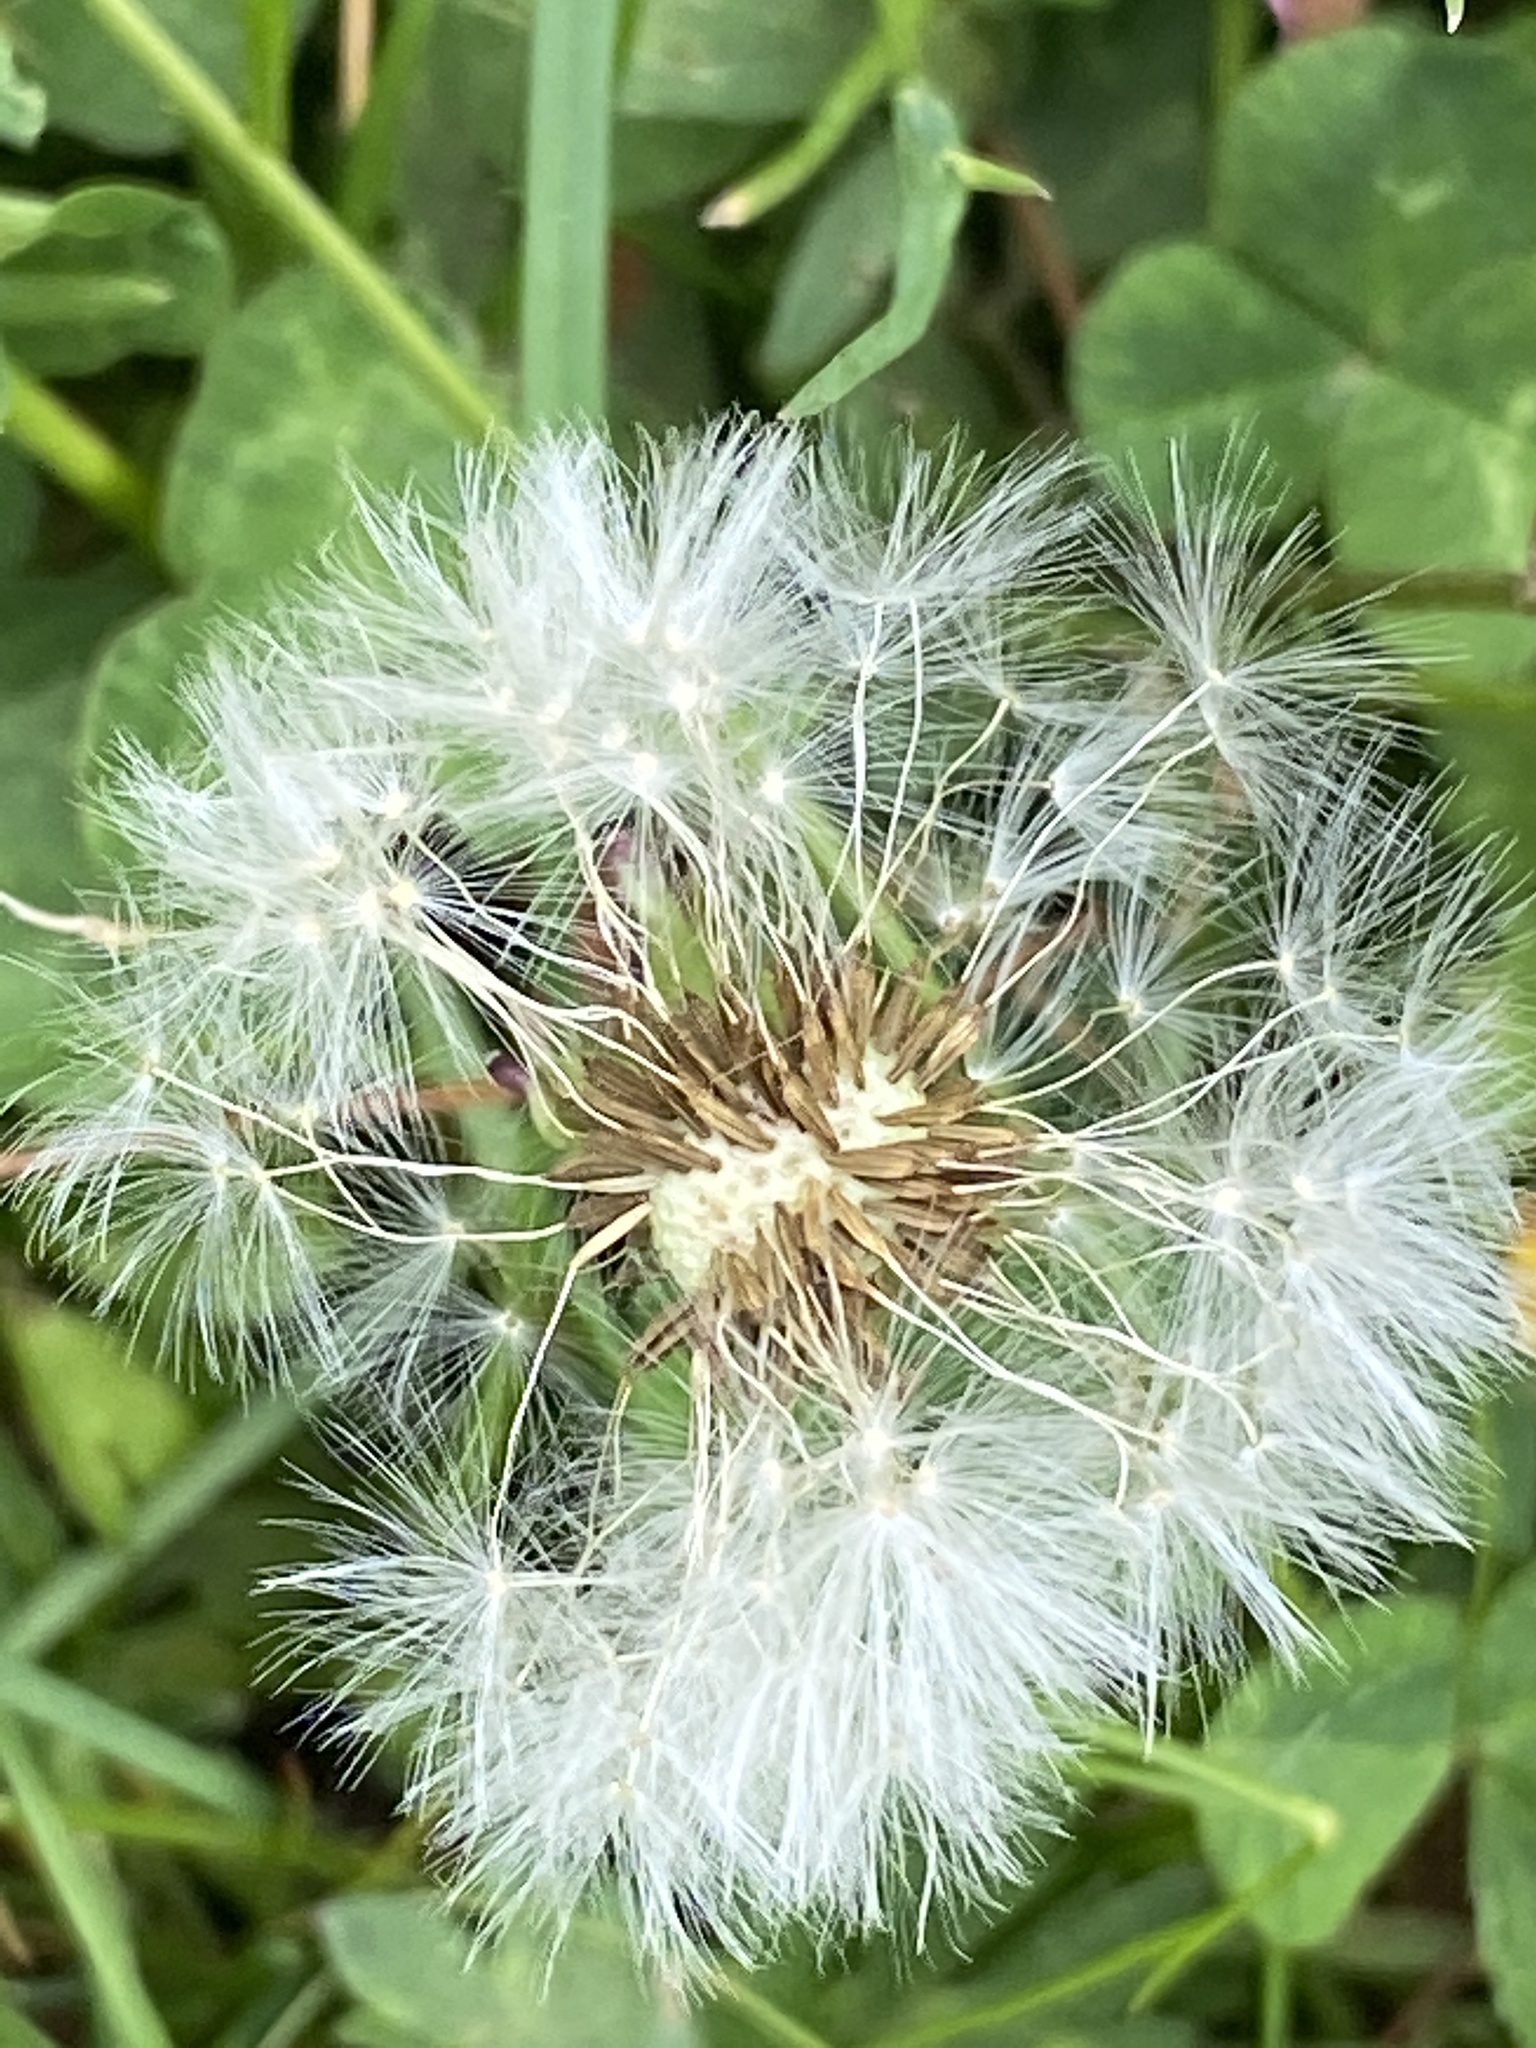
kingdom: Plantae
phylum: Tracheophyta
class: Magnoliopsida
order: Asterales
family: Asteraceae
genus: Taraxacum
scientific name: Taraxacum officinale
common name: Common dandelion
